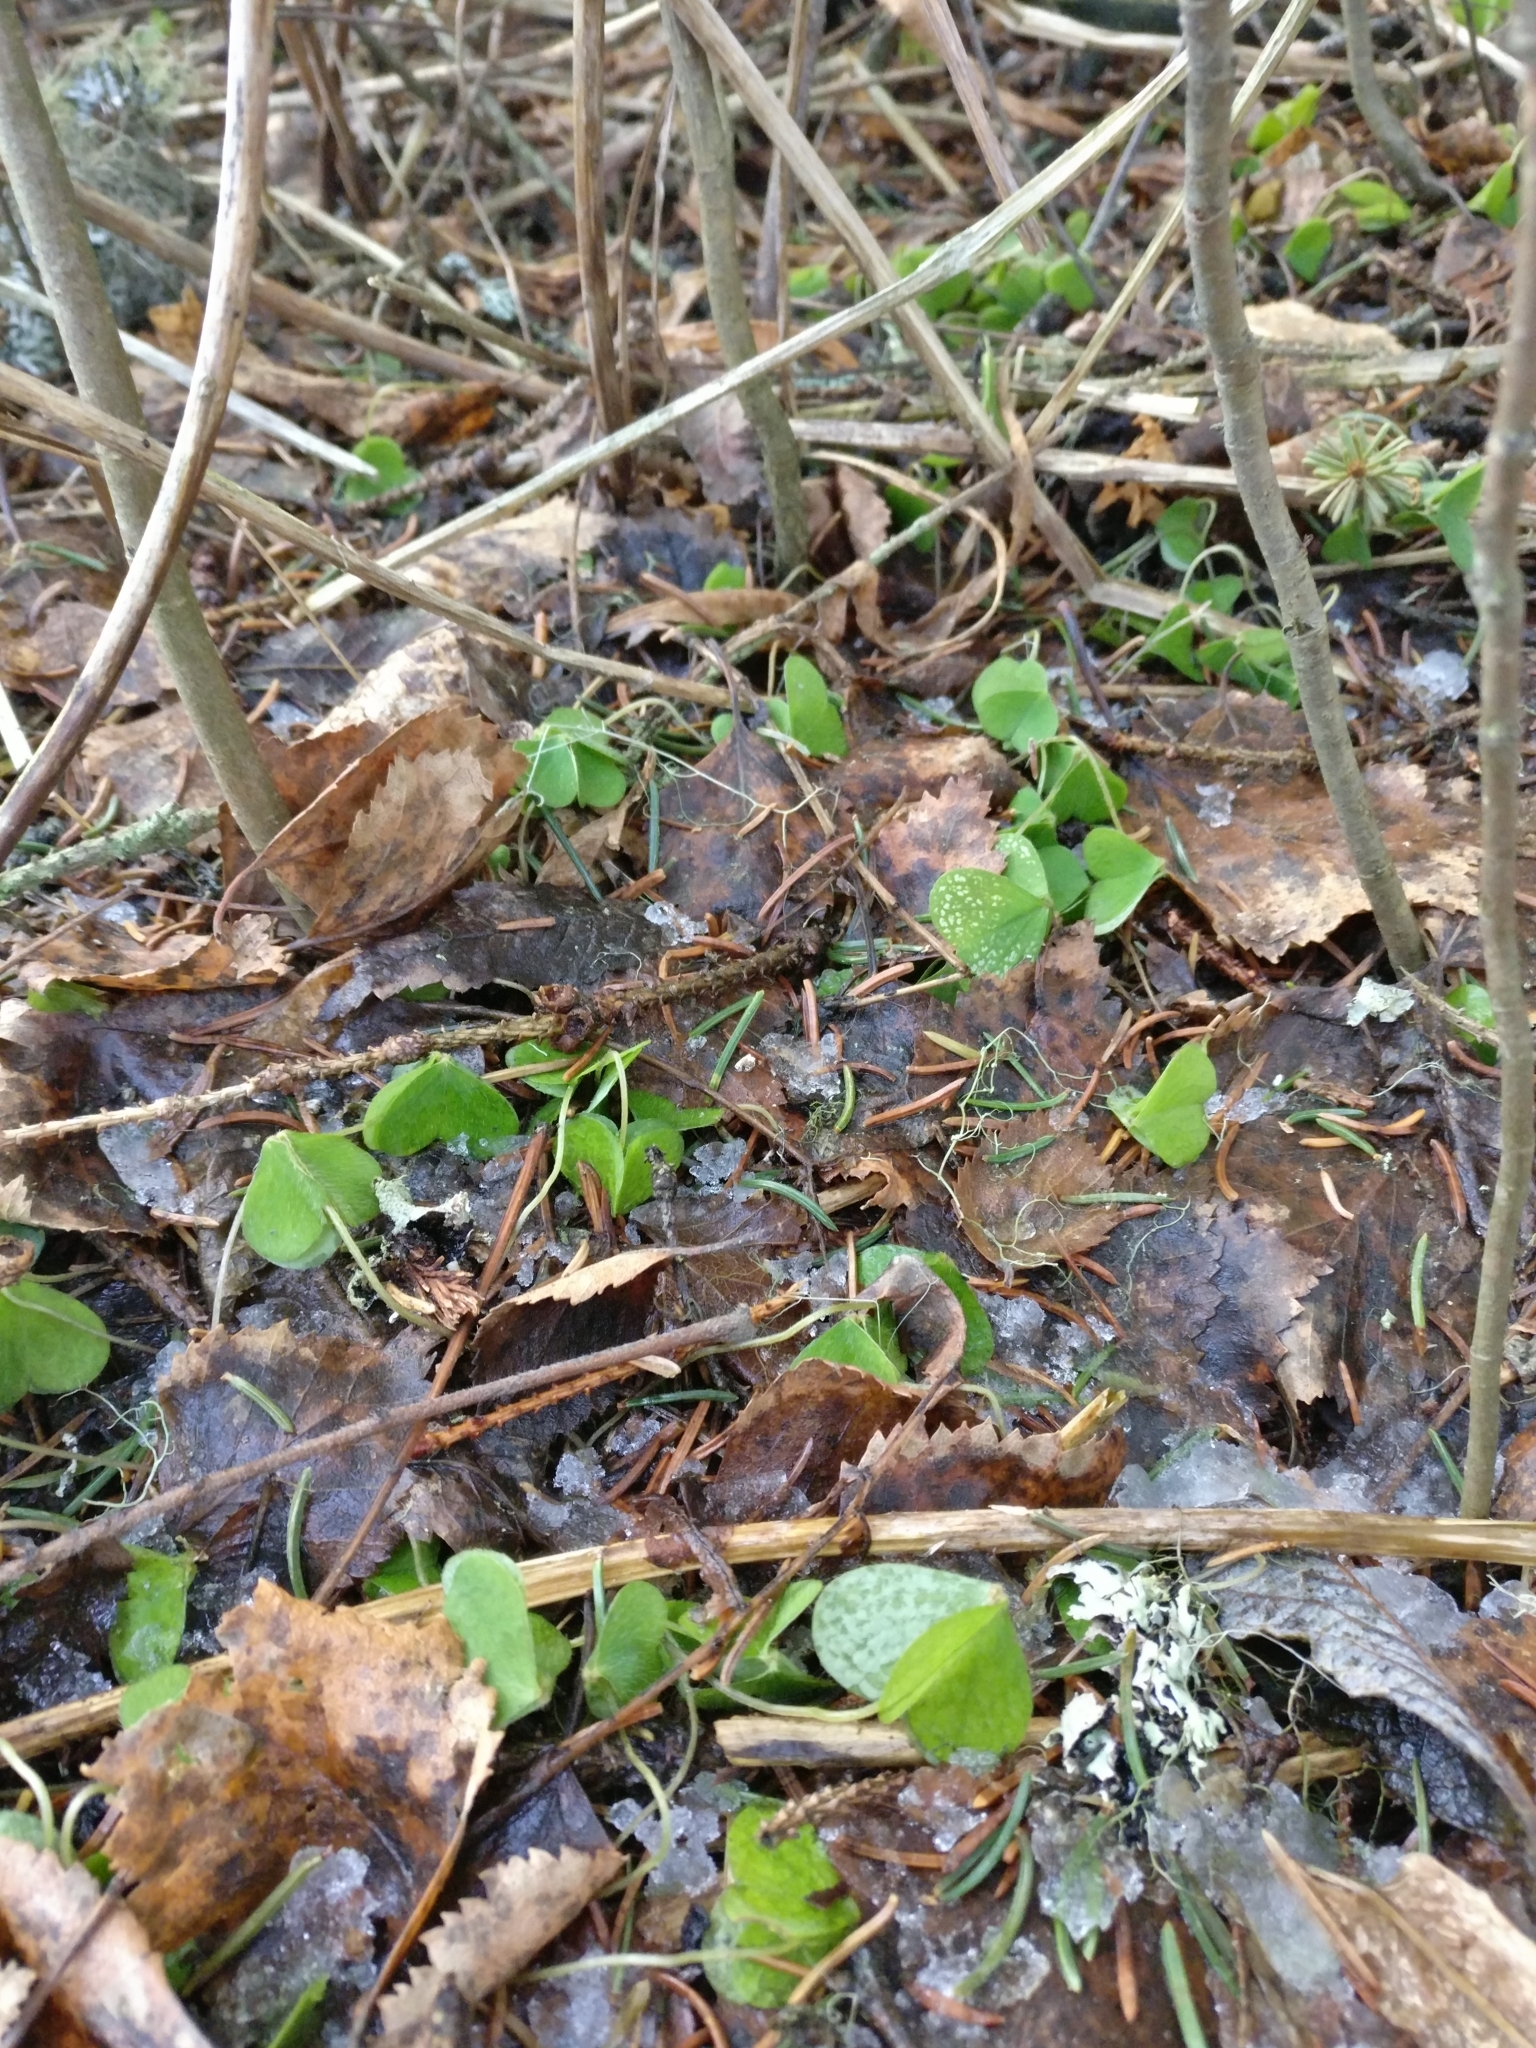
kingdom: Plantae
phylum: Tracheophyta
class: Magnoliopsida
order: Oxalidales
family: Oxalidaceae
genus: Oxalis
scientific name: Oxalis acetosella
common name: Wood-sorrel
